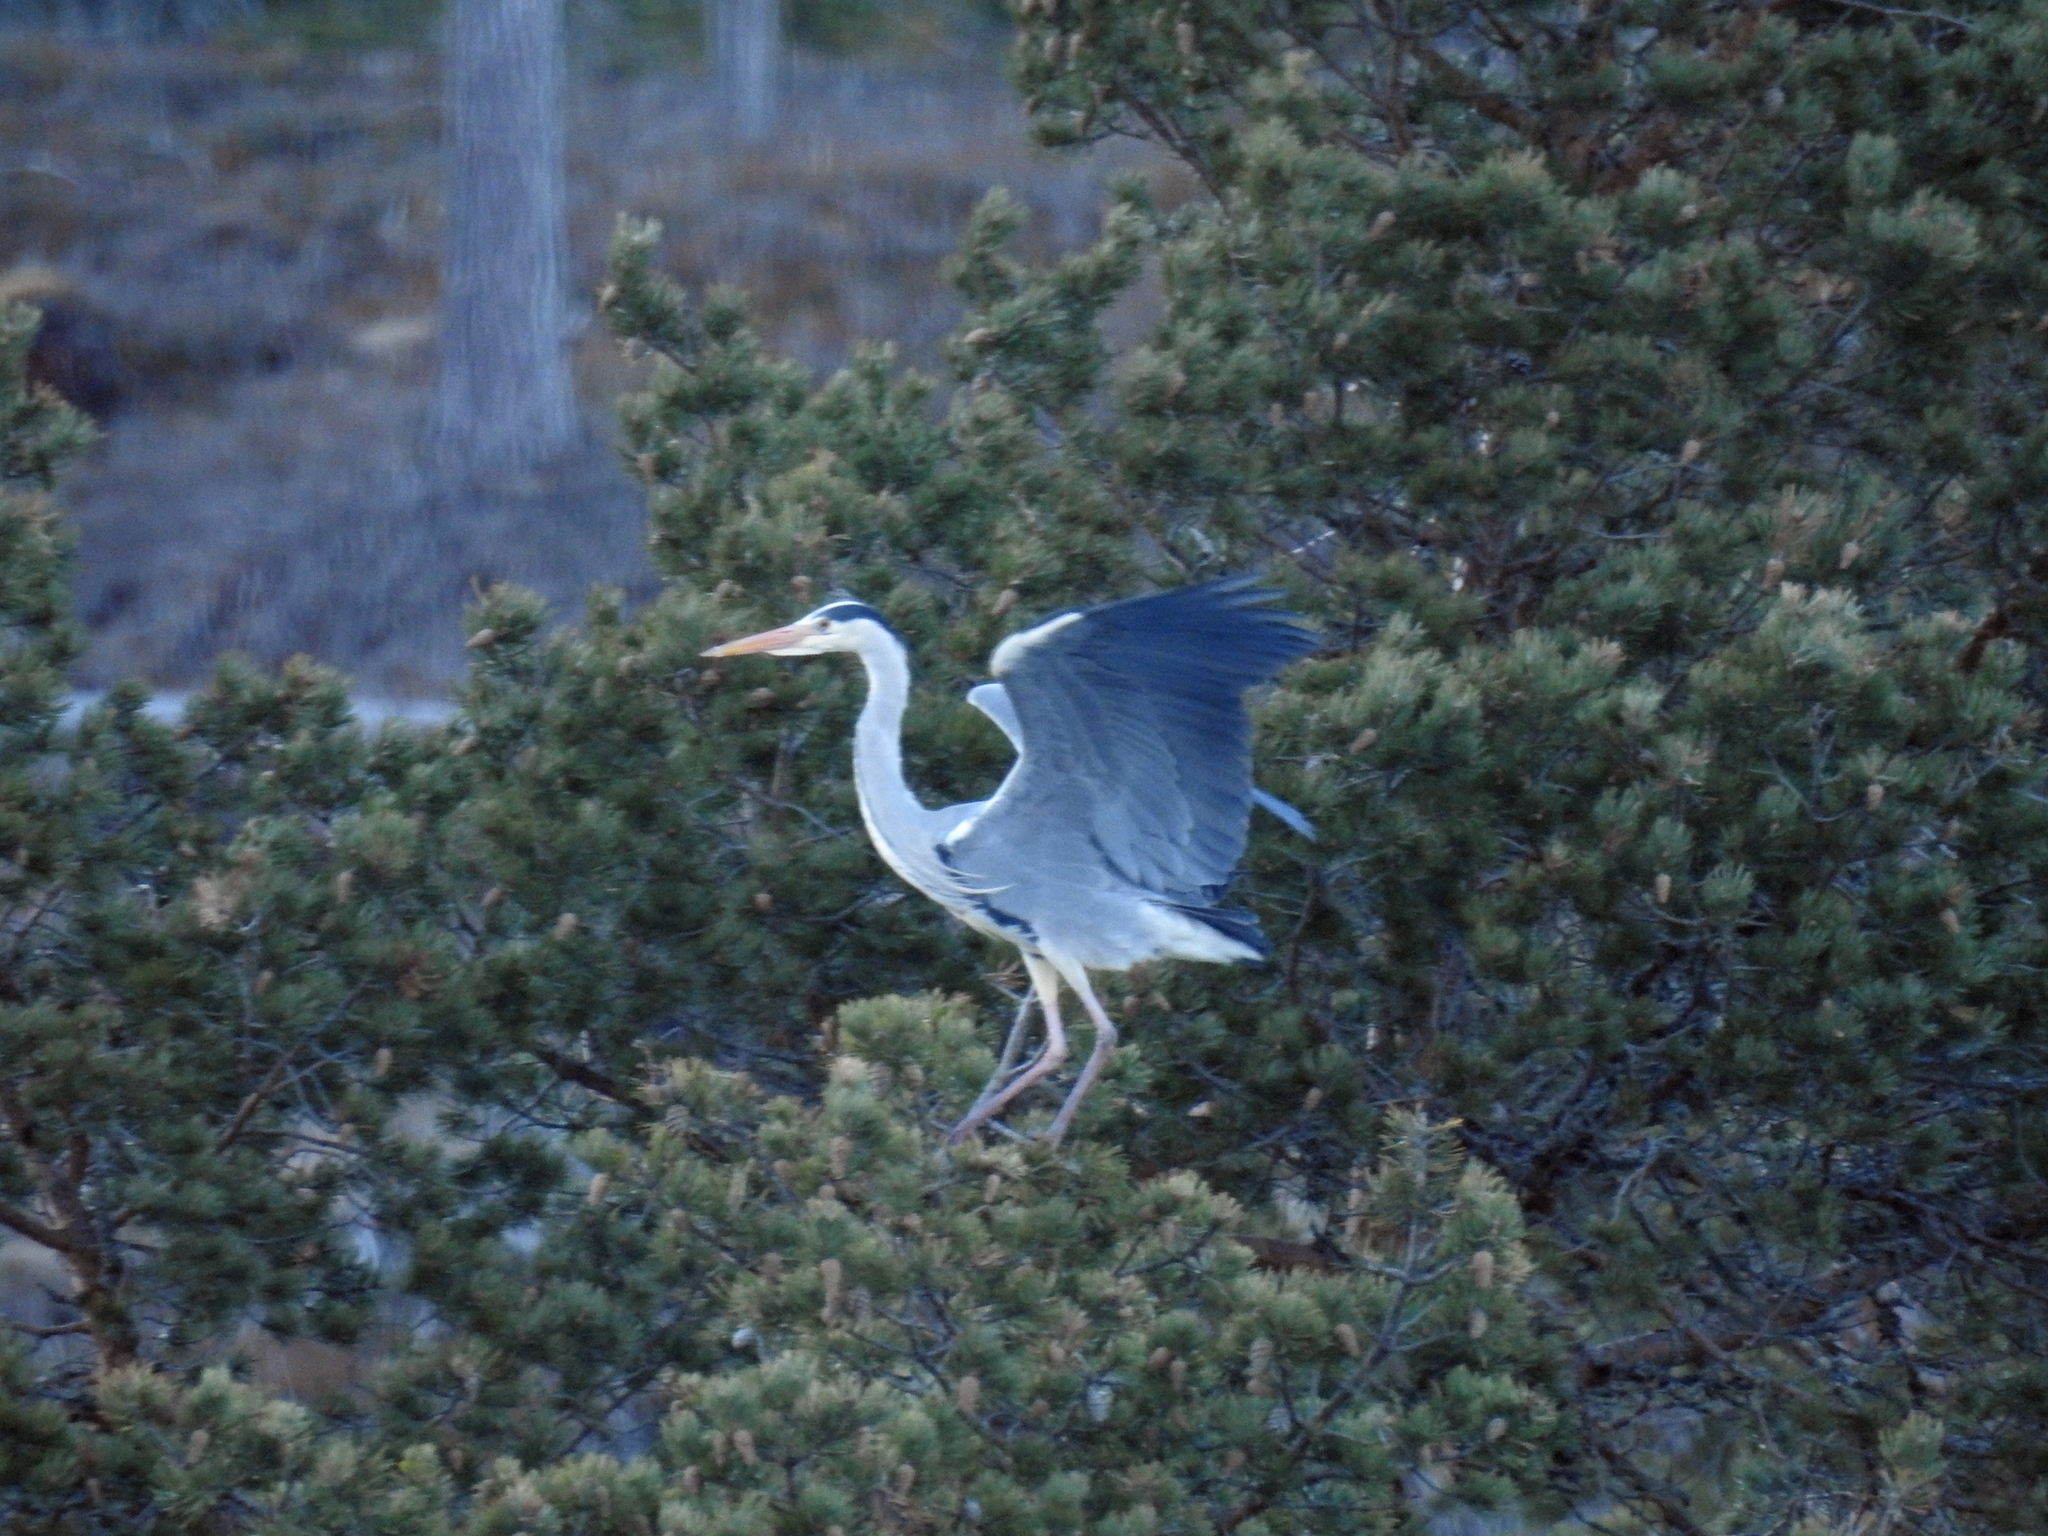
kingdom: Animalia
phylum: Chordata
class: Aves
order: Pelecaniformes
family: Ardeidae
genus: Ardea
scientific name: Ardea cinerea
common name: Grey heron
